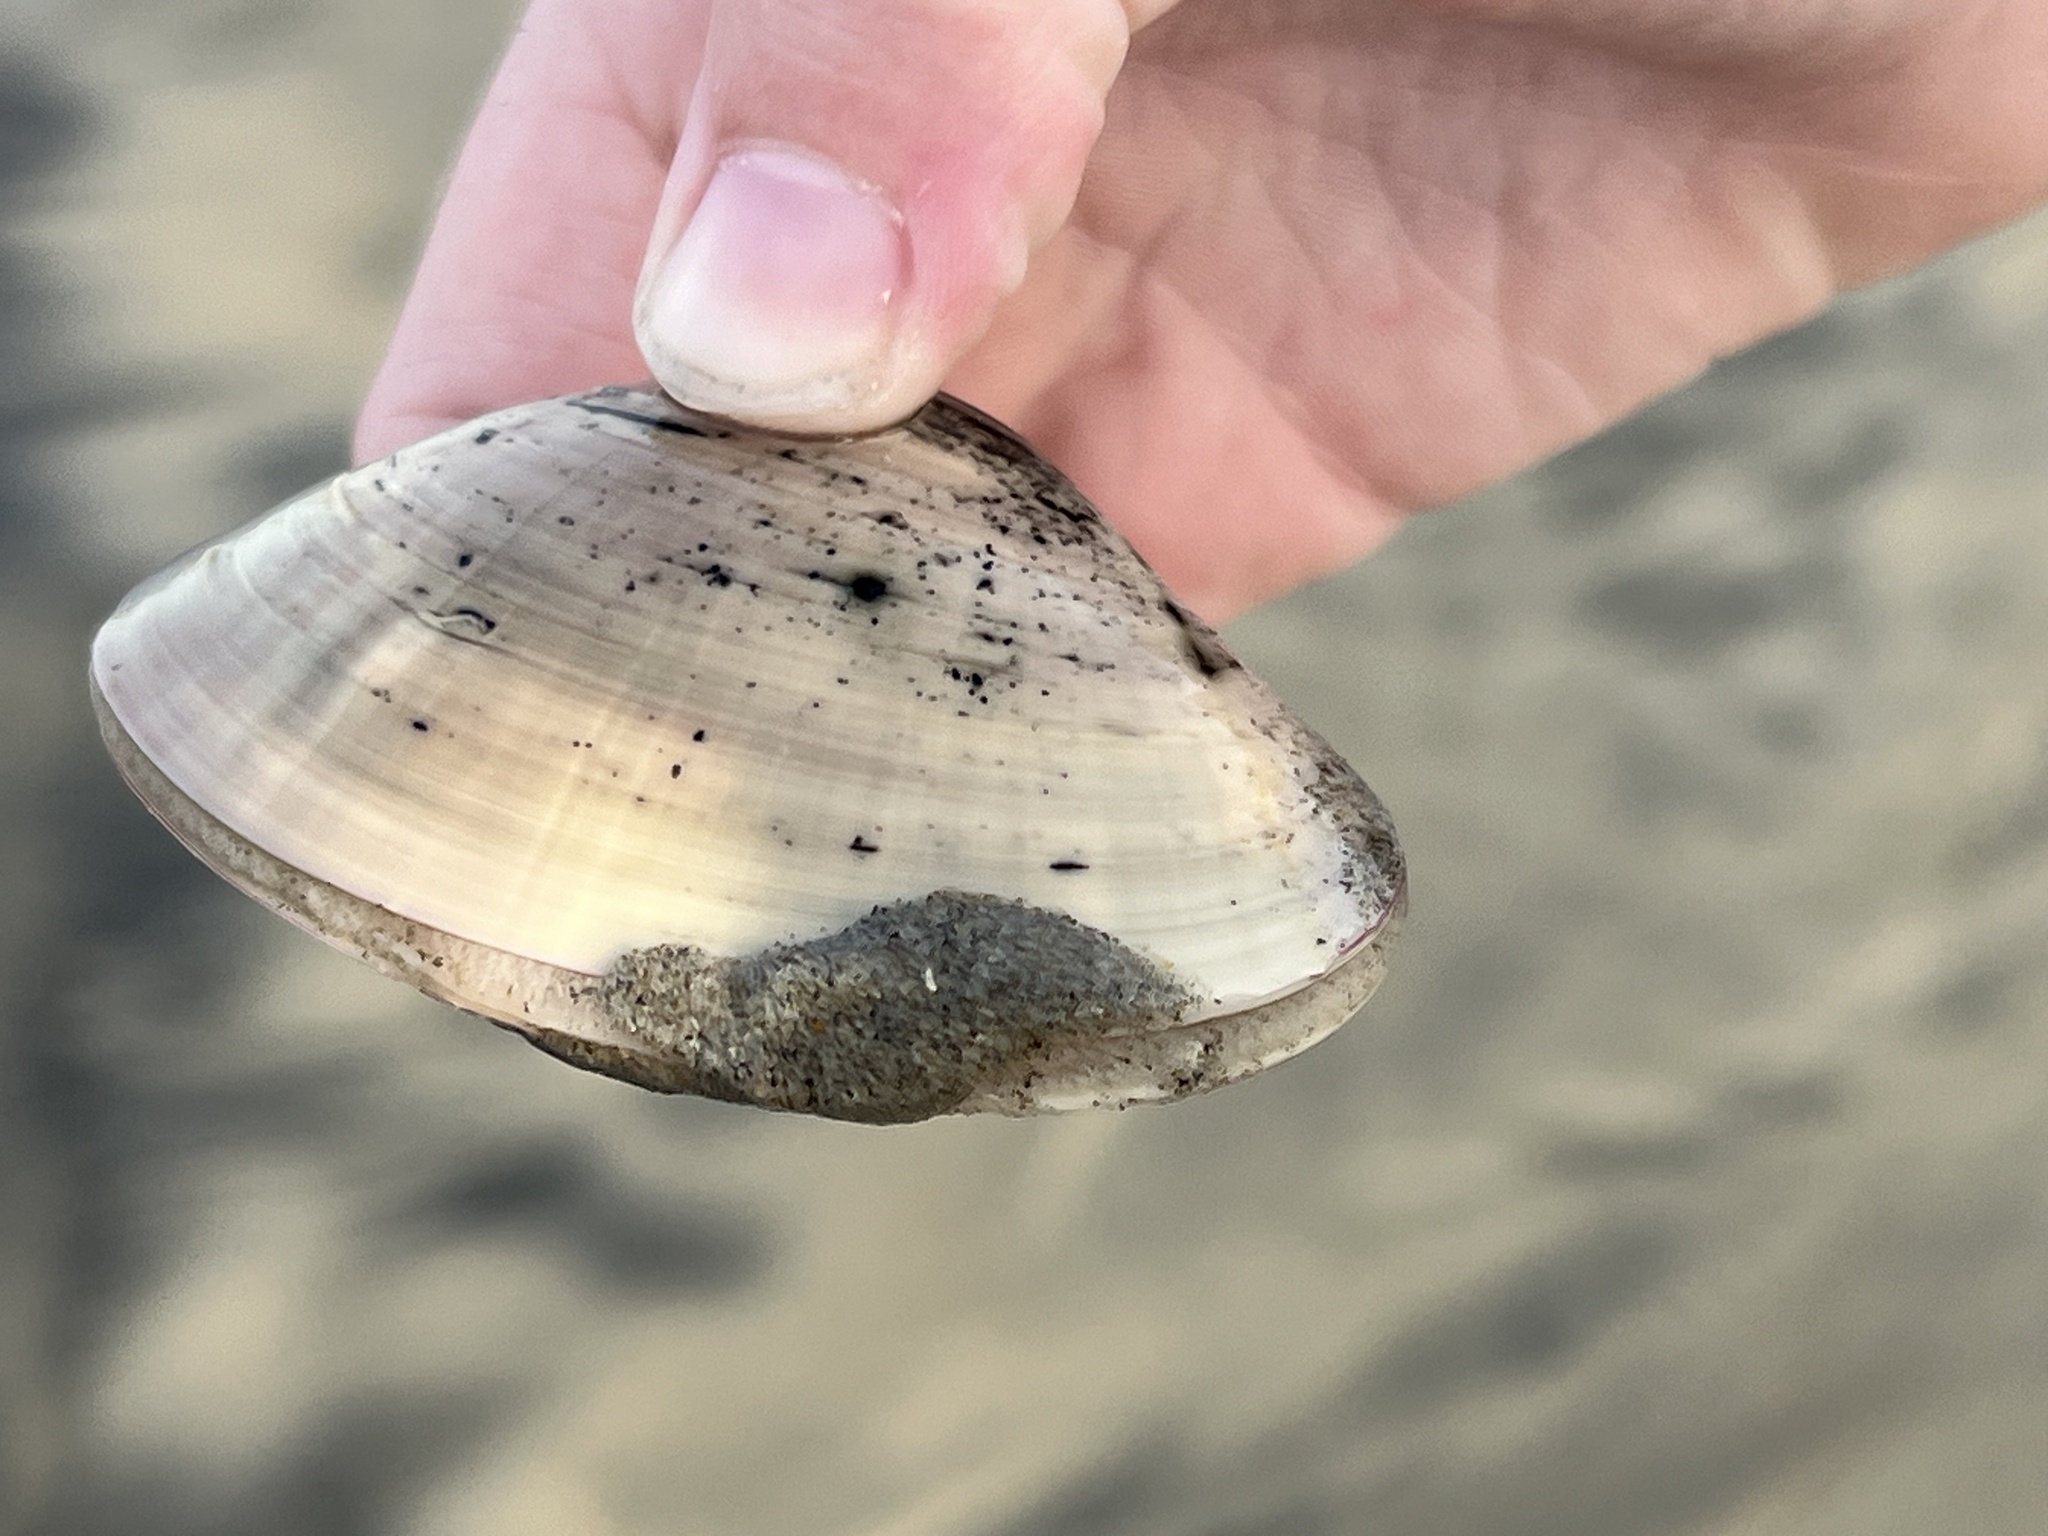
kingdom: Animalia
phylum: Mollusca
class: Bivalvia
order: Venerida
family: Veneridae
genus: Tivela
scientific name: Tivela stultorum
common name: Pismo clam
